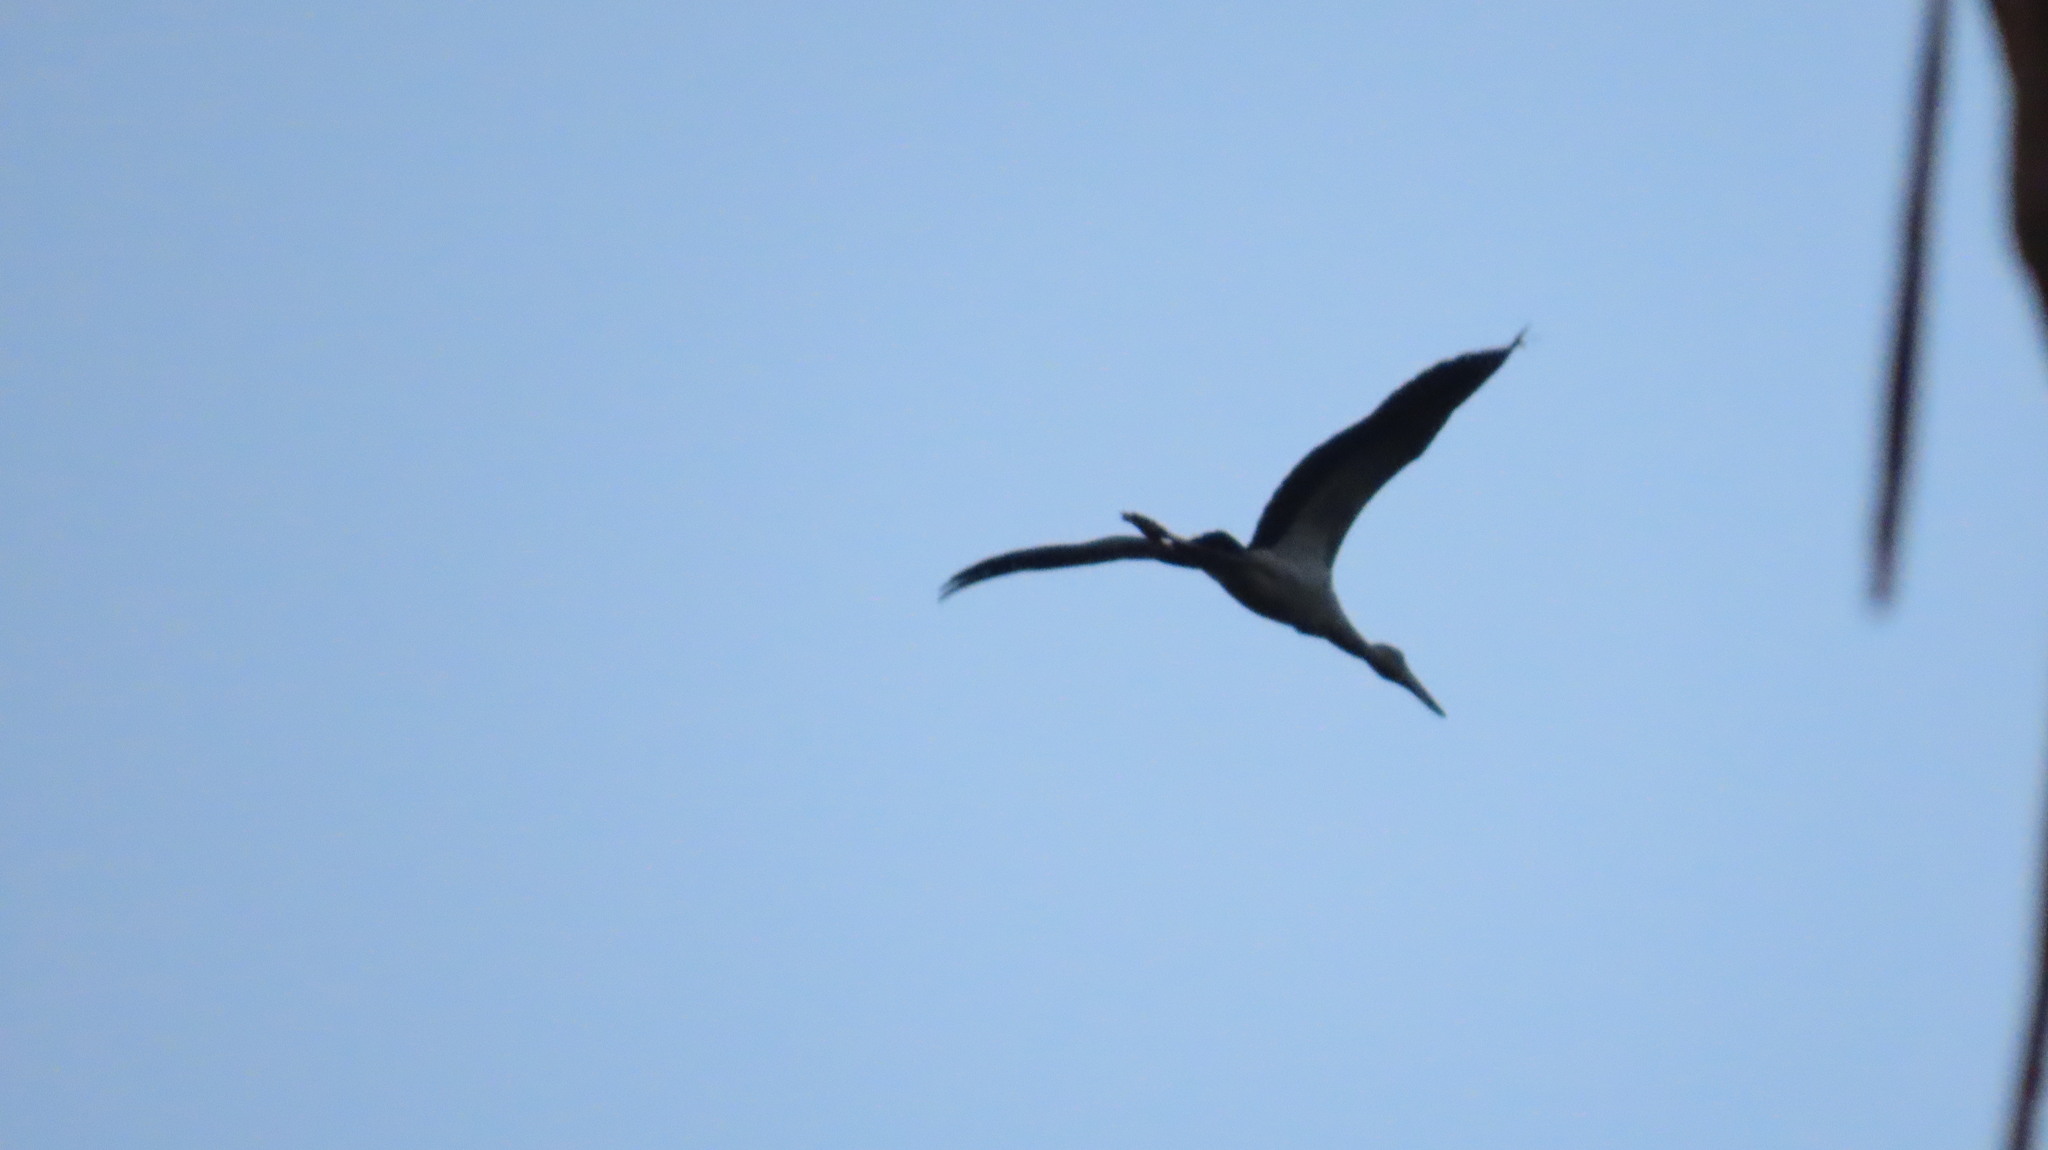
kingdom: Animalia
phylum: Chordata
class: Aves
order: Ciconiiformes
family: Ciconiidae
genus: Anastomus
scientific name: Anastomus oscitans
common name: Asian openbill
